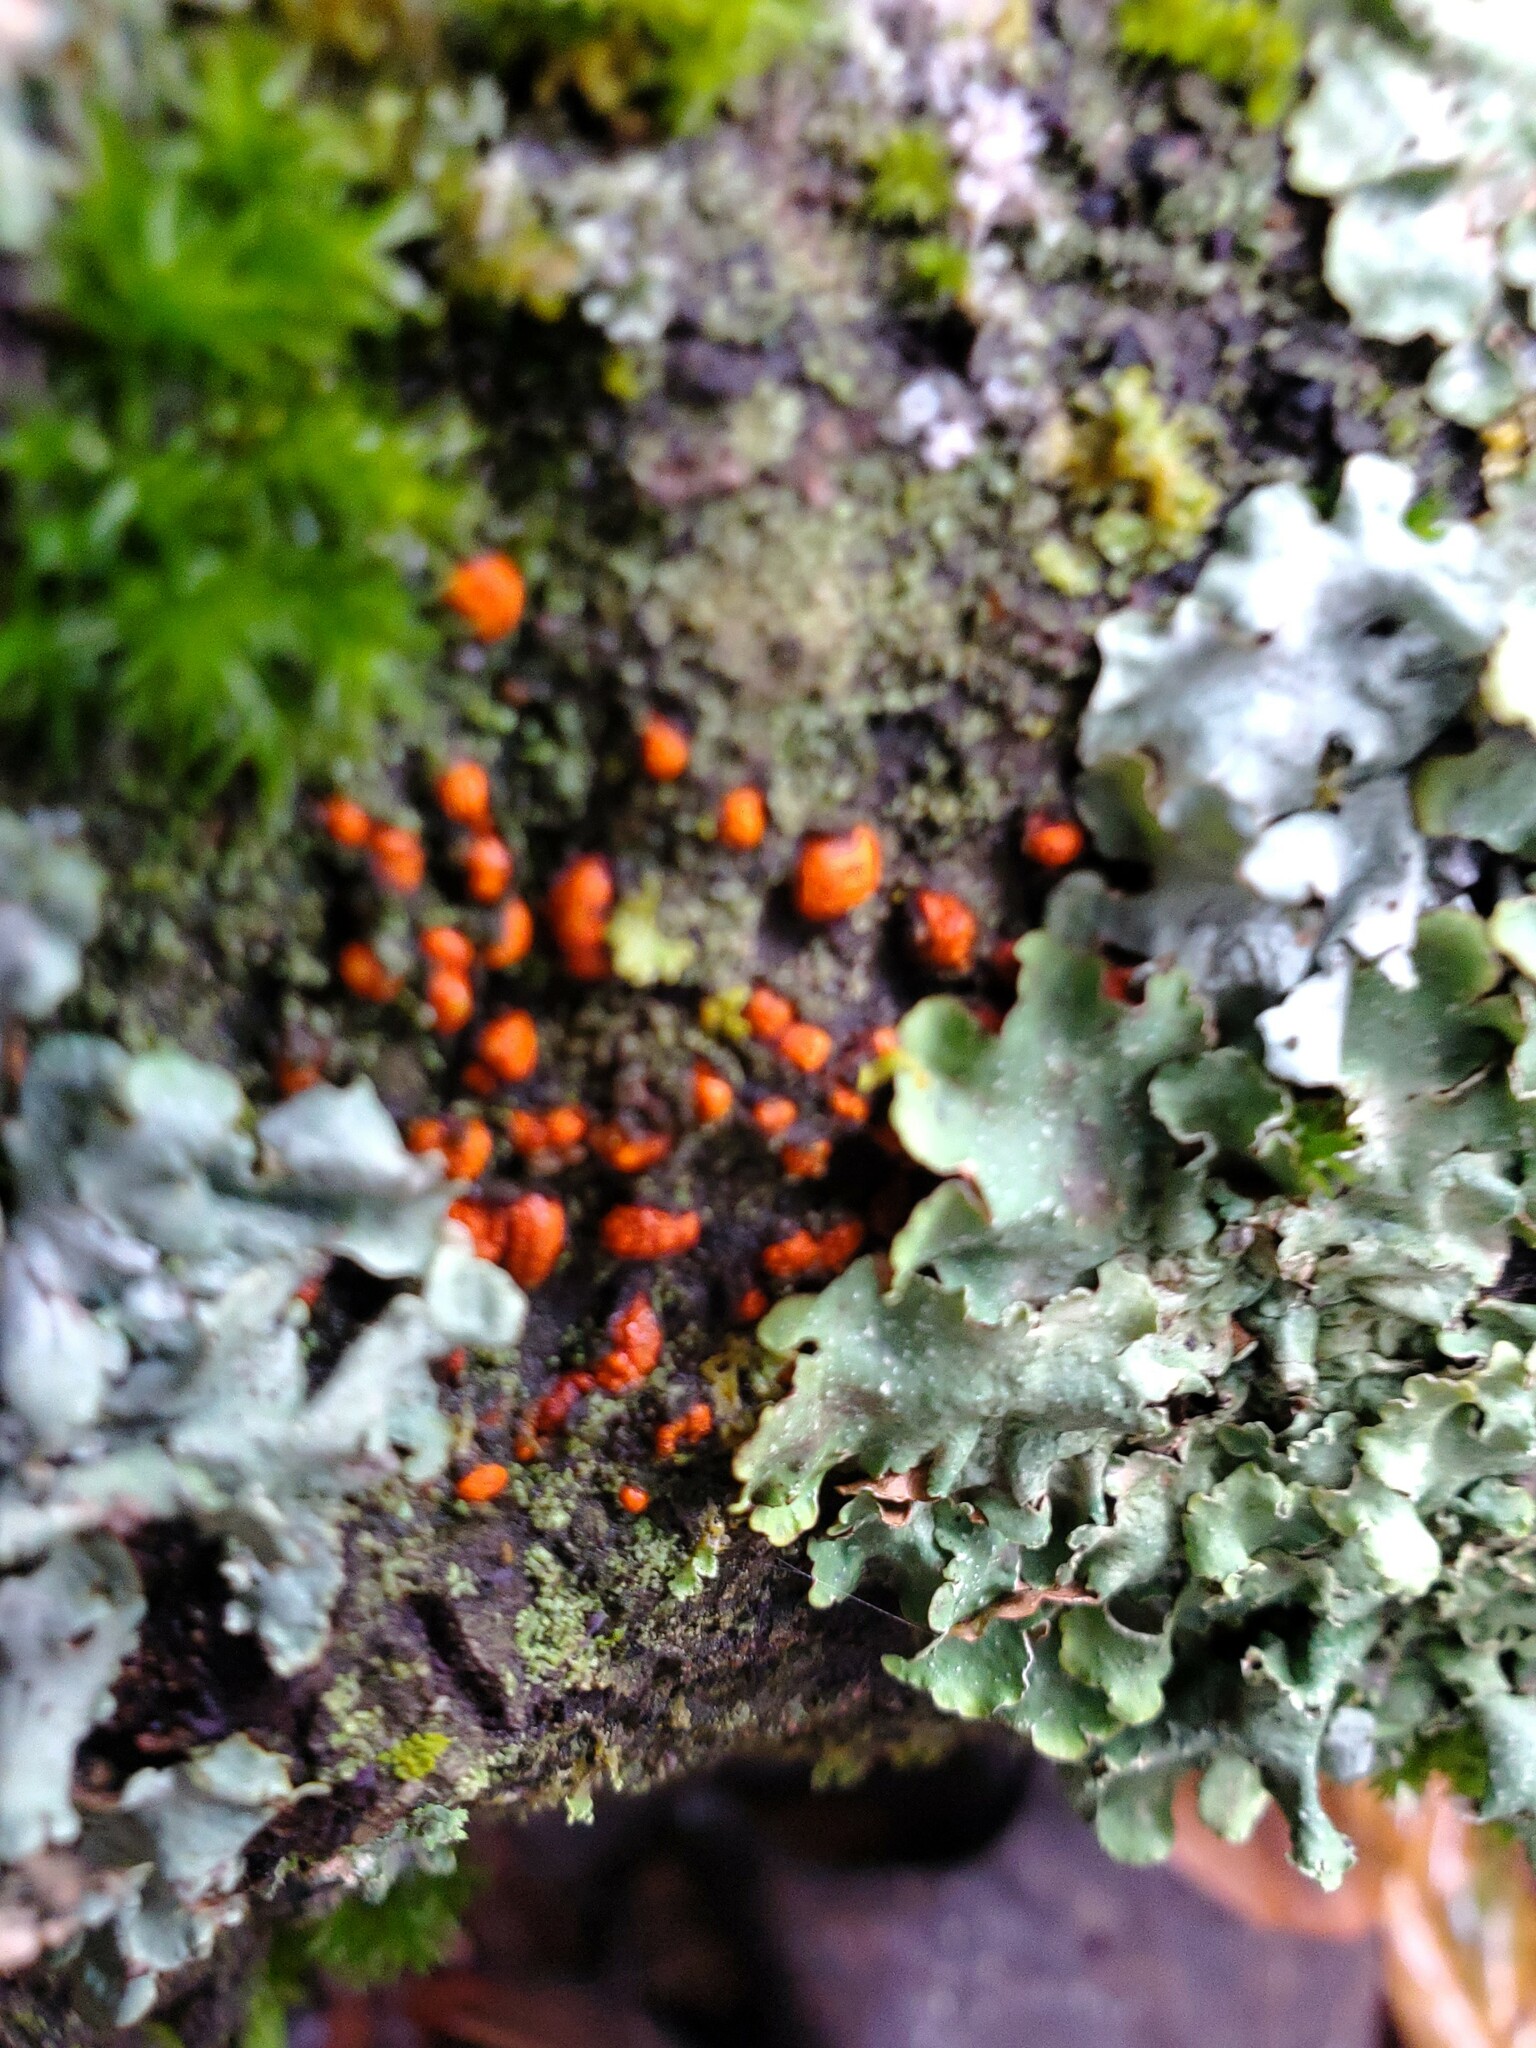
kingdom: Fungi
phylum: Ascomycota
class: Sordariomycetes
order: Diaporthales
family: Cryphonectriaceae
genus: Amphilogia
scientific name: Amphilogia gyrosa
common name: Orange hobnail canker
